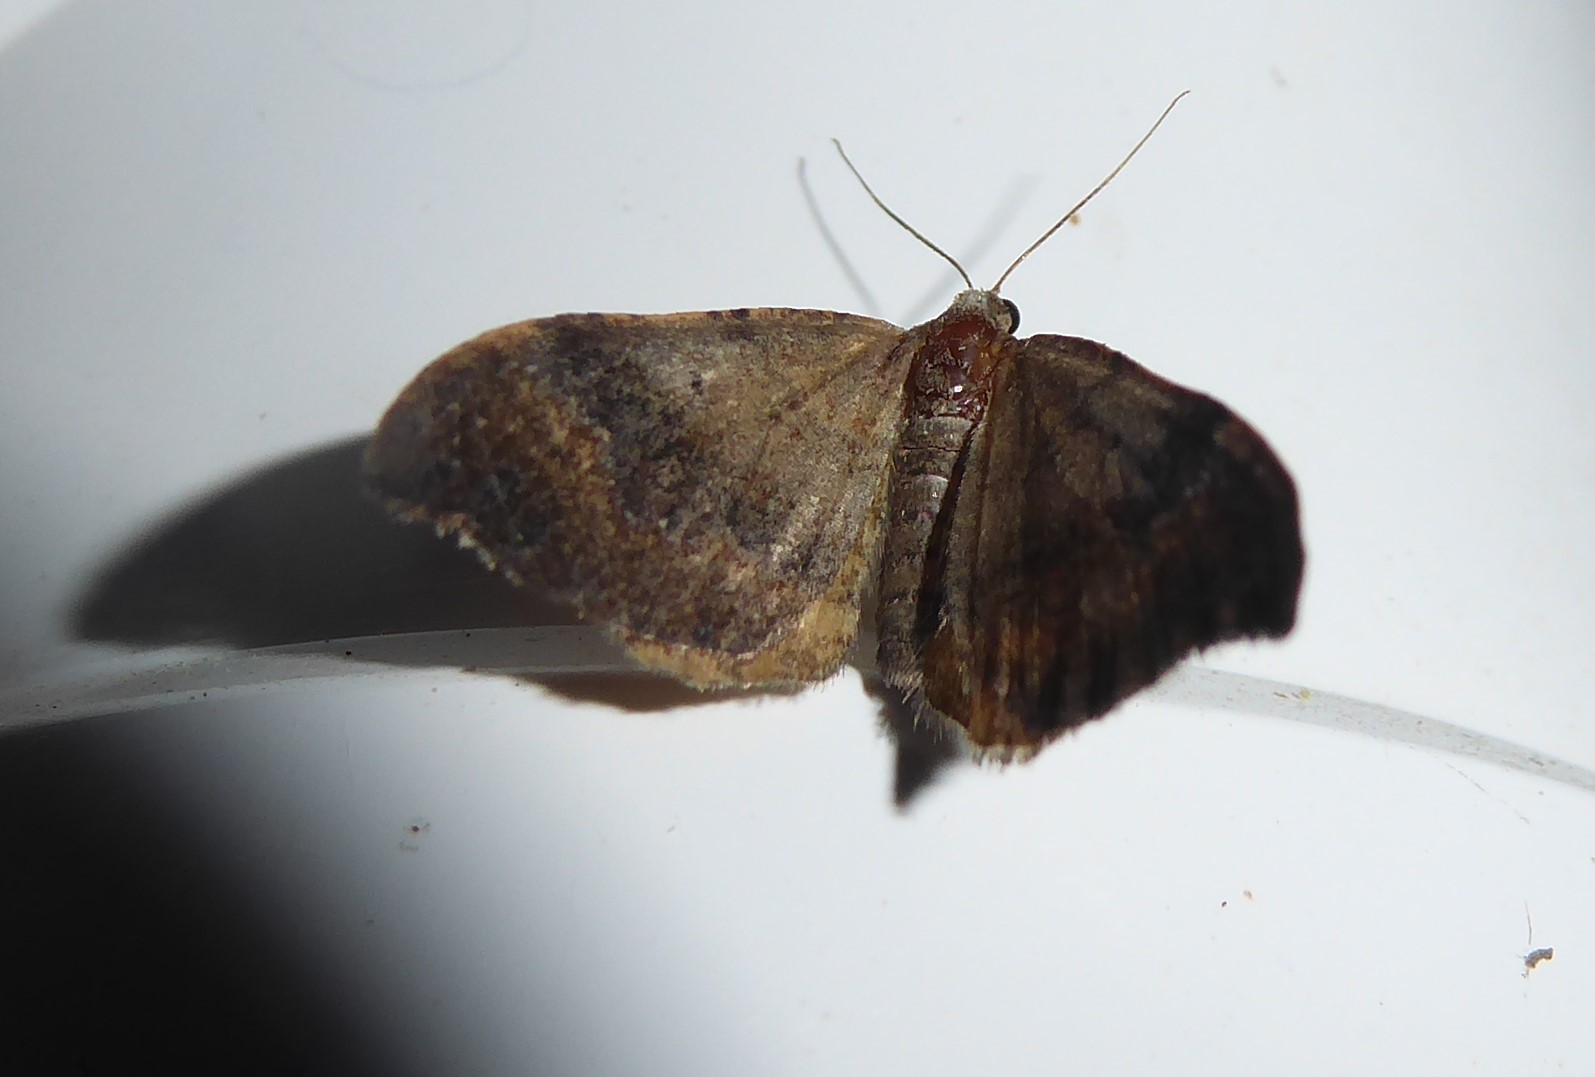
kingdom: Animalia
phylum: Arthropoda
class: Insecta
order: Lepidoptera
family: Geometridae
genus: Homodotis
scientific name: Homodotis megaspilata
